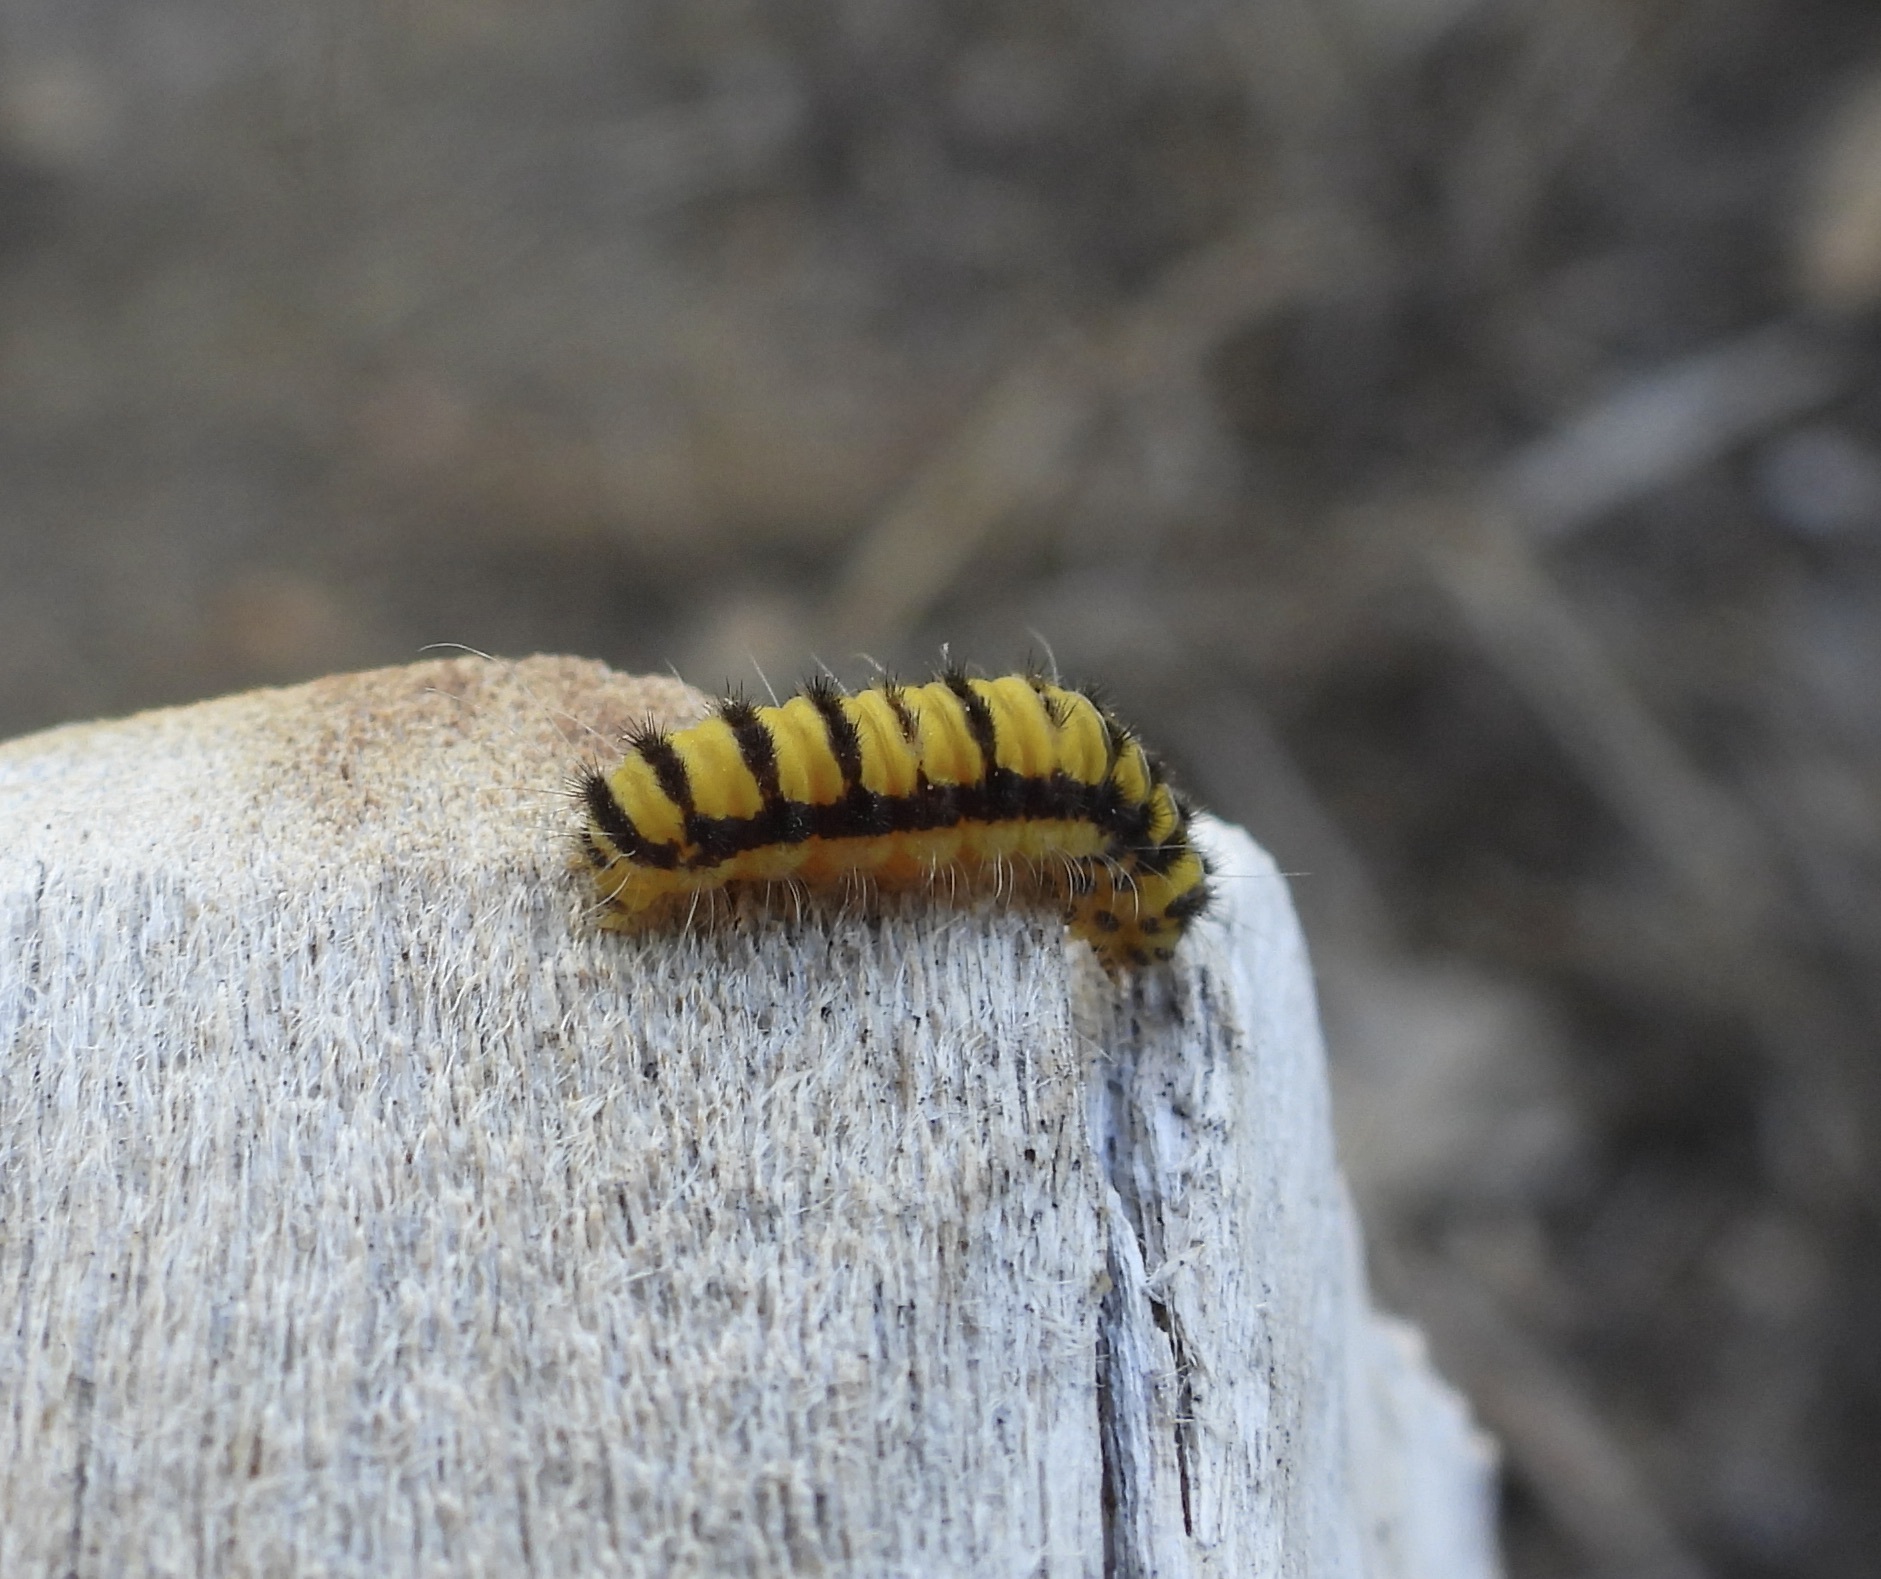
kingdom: Animalia
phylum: Arthropoda
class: Insecta
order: Lepidoptera
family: Zygaenidae
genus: Harrisina
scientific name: Harrisina americana
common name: Grapeleaf skeletonizer moth
